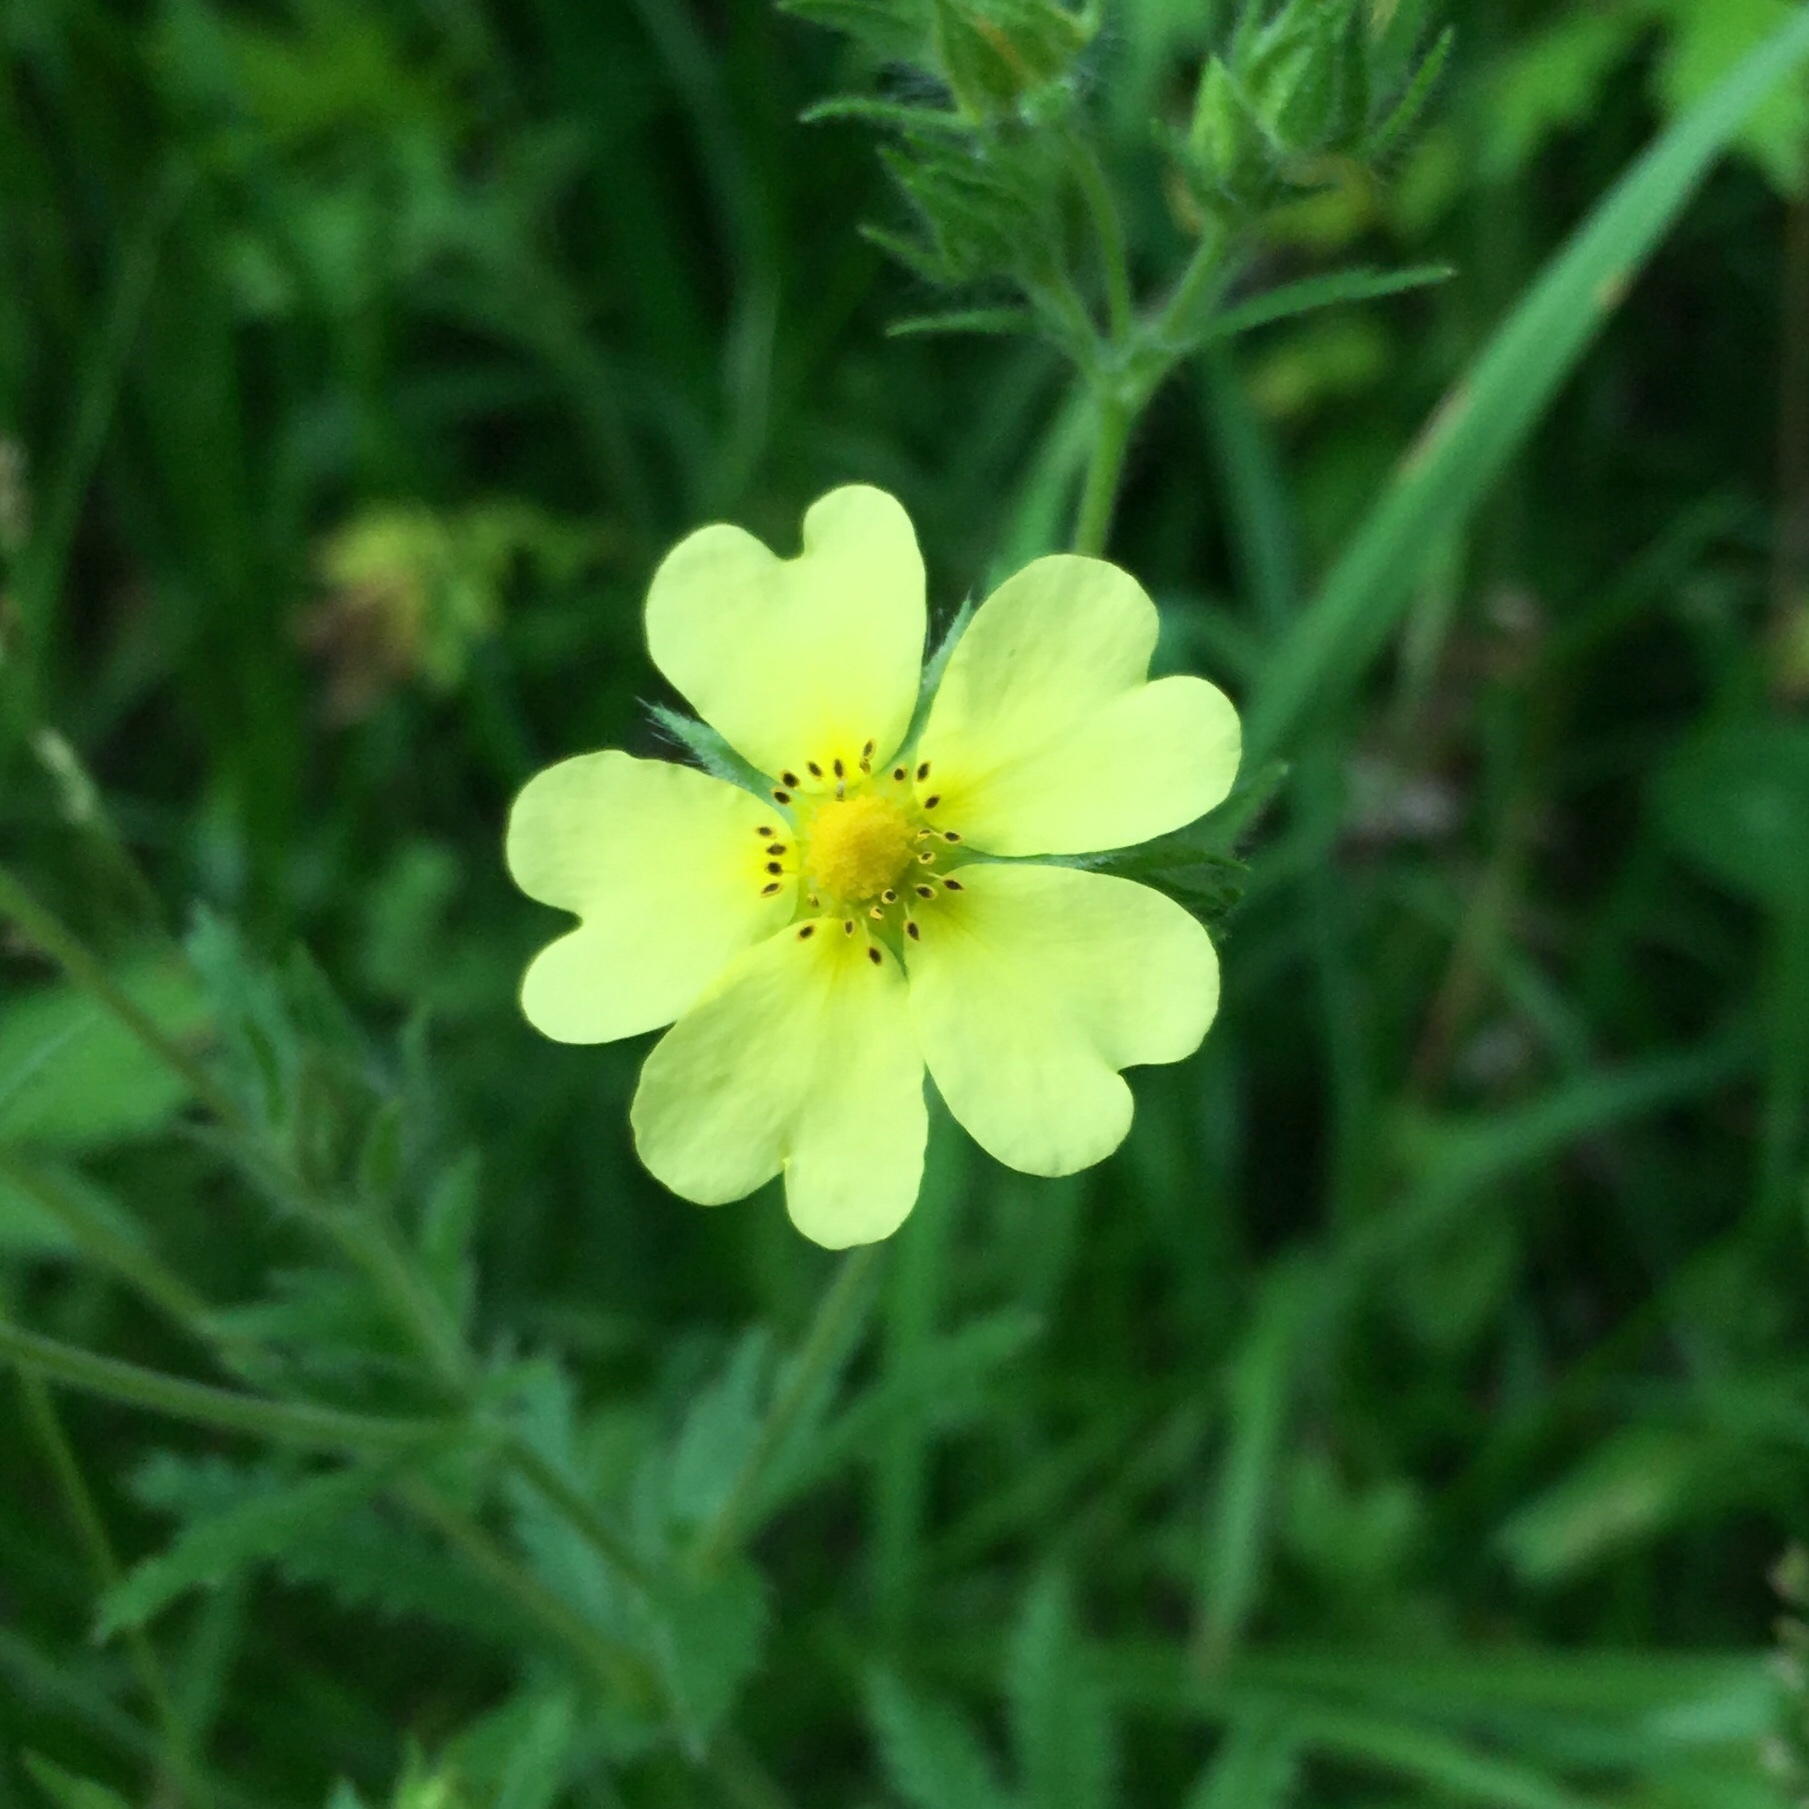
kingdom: Plantae
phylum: Tracheophyta
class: Magnoliopsida
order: Rosales
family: Rosaceae
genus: Potentilla
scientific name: Potentilla recta
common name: Sulphur cinquefoil
